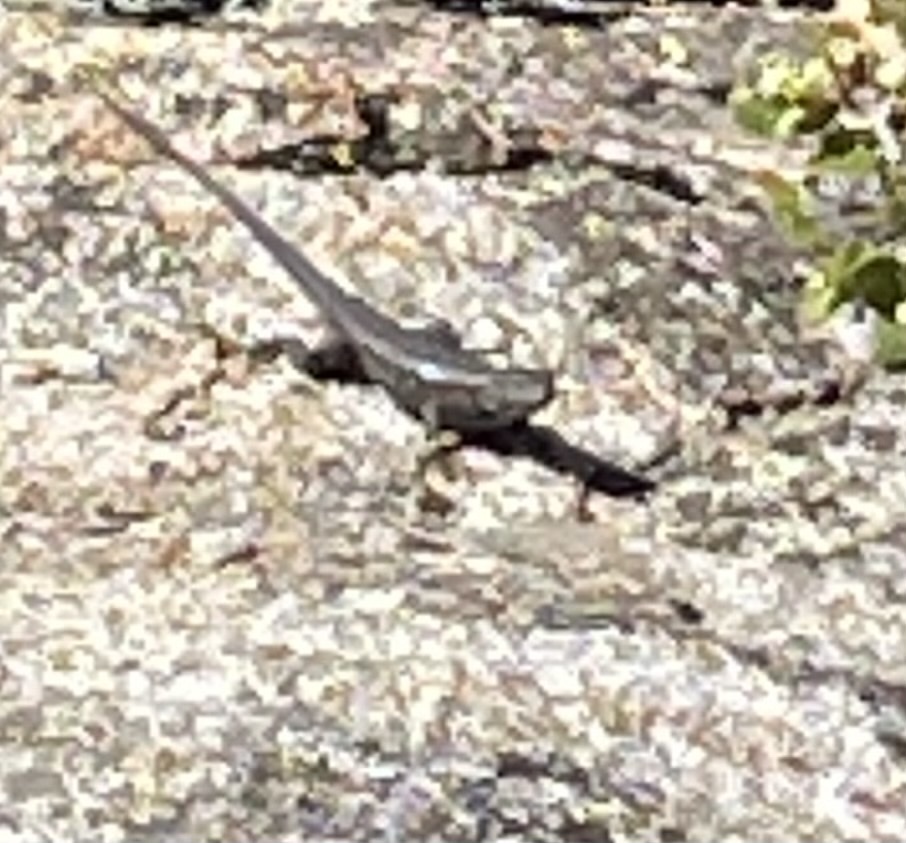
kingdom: Animalia
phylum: Chordata
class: Squamata
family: Phrynosomatidae
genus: Sceloporus
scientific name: Sceloporus occidentalis
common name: Western fence lizard
